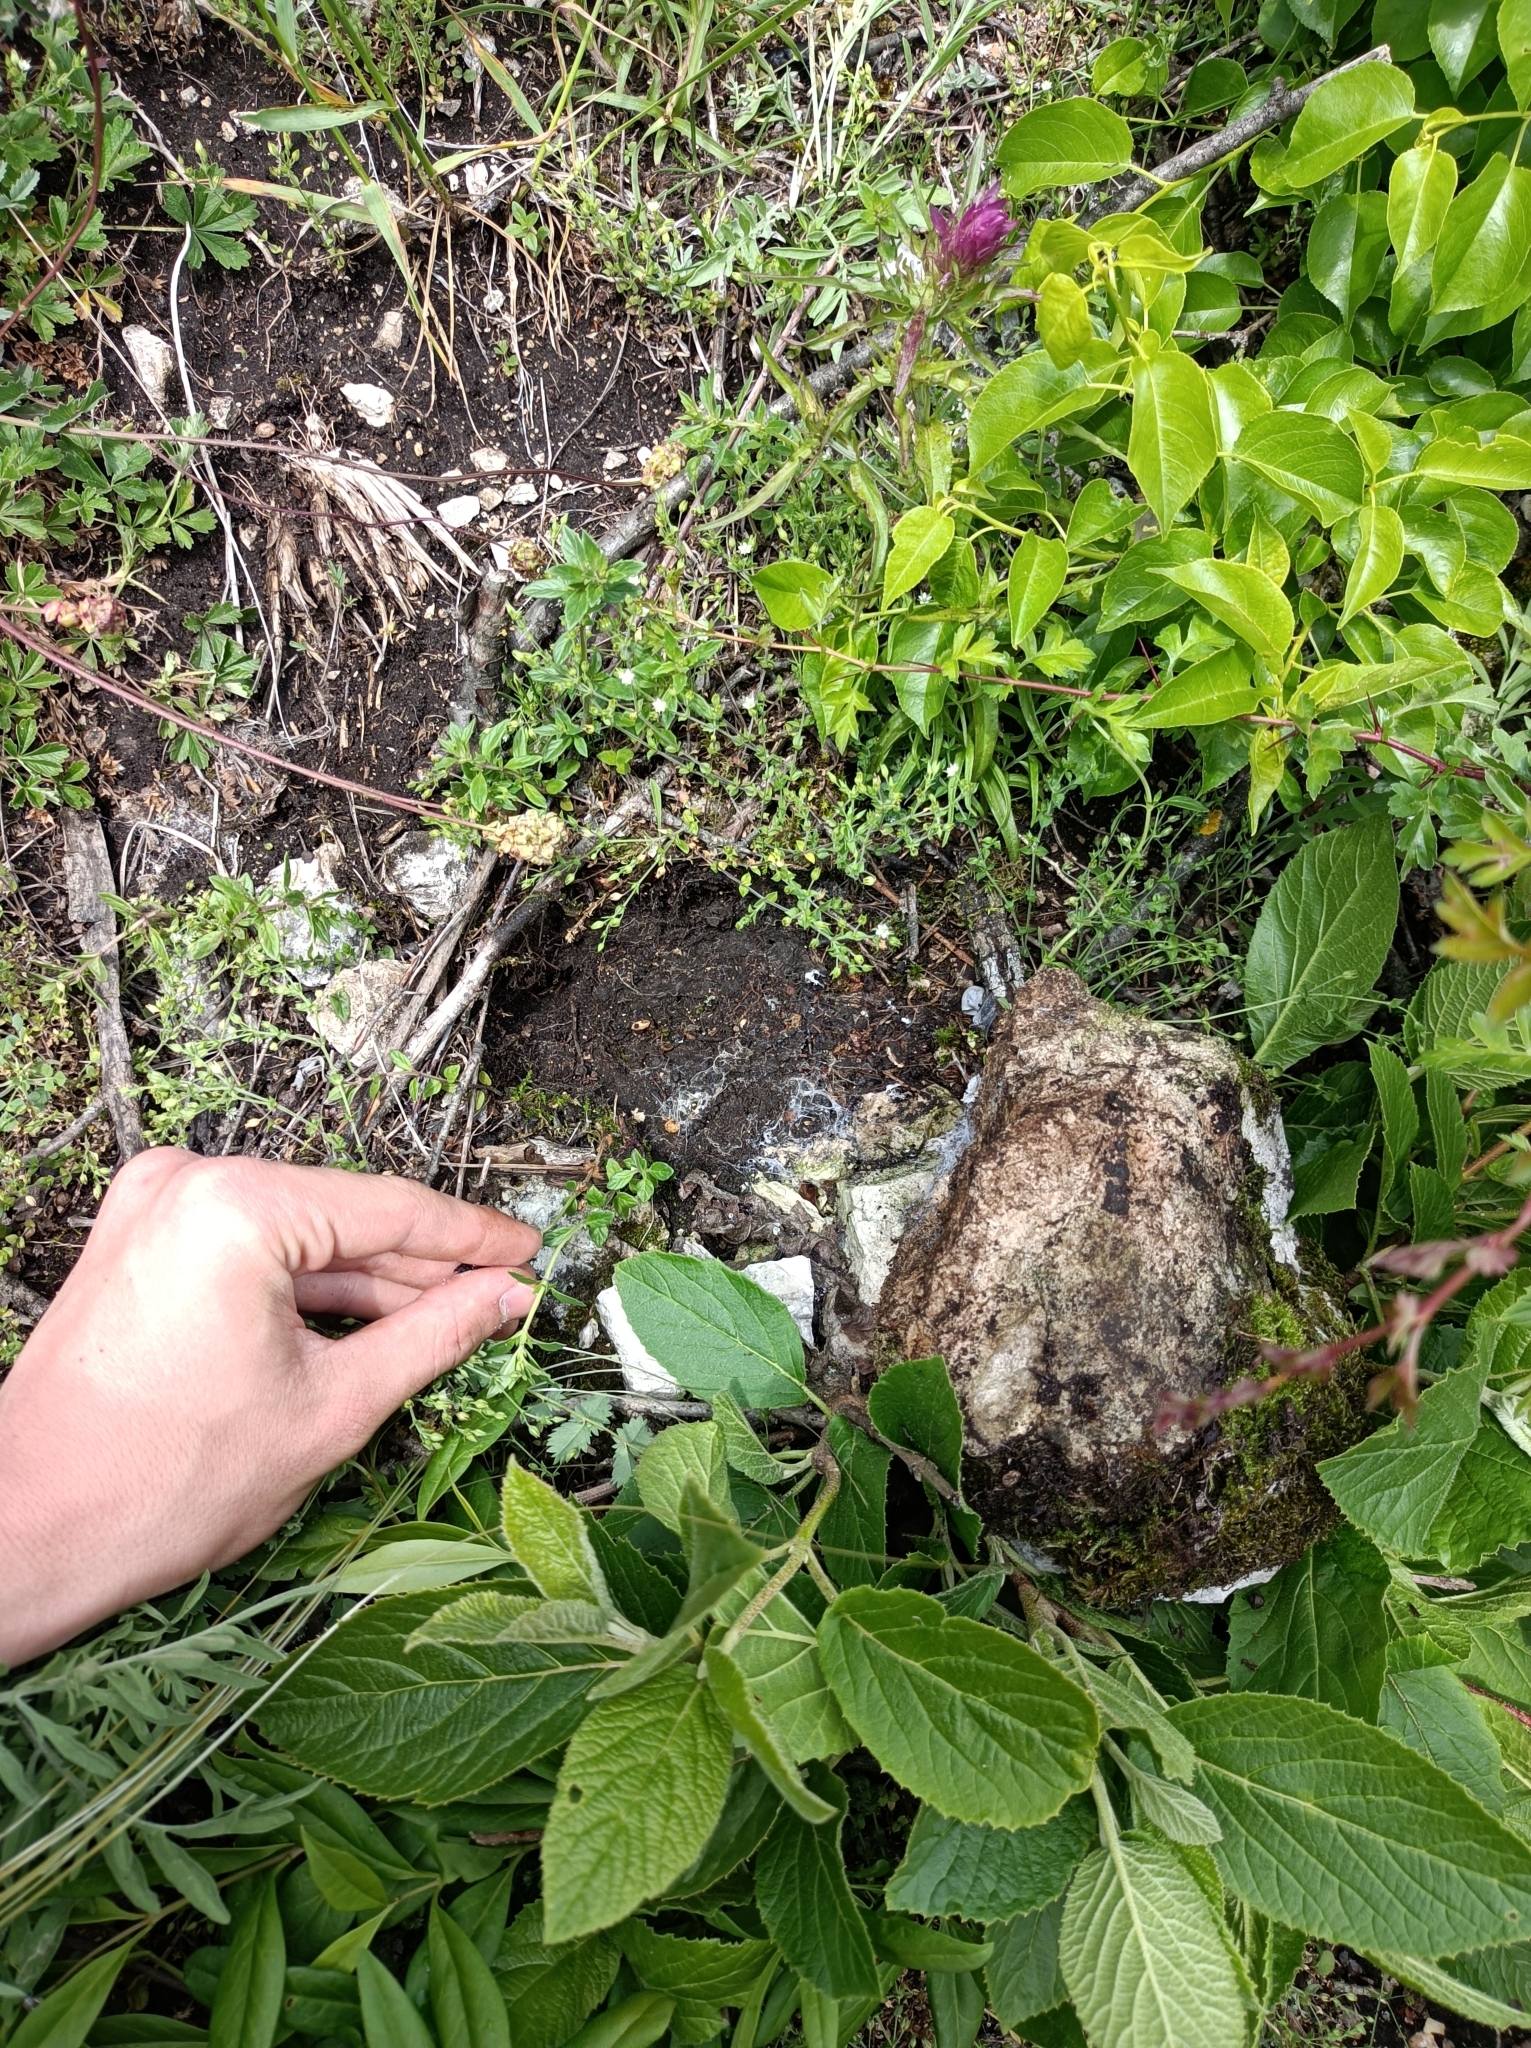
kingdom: Animalia
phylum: Arthropoda
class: Insecta
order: Hymenoptera
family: Formicidae
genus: Camponotus
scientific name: Camponotus ligniperdus
